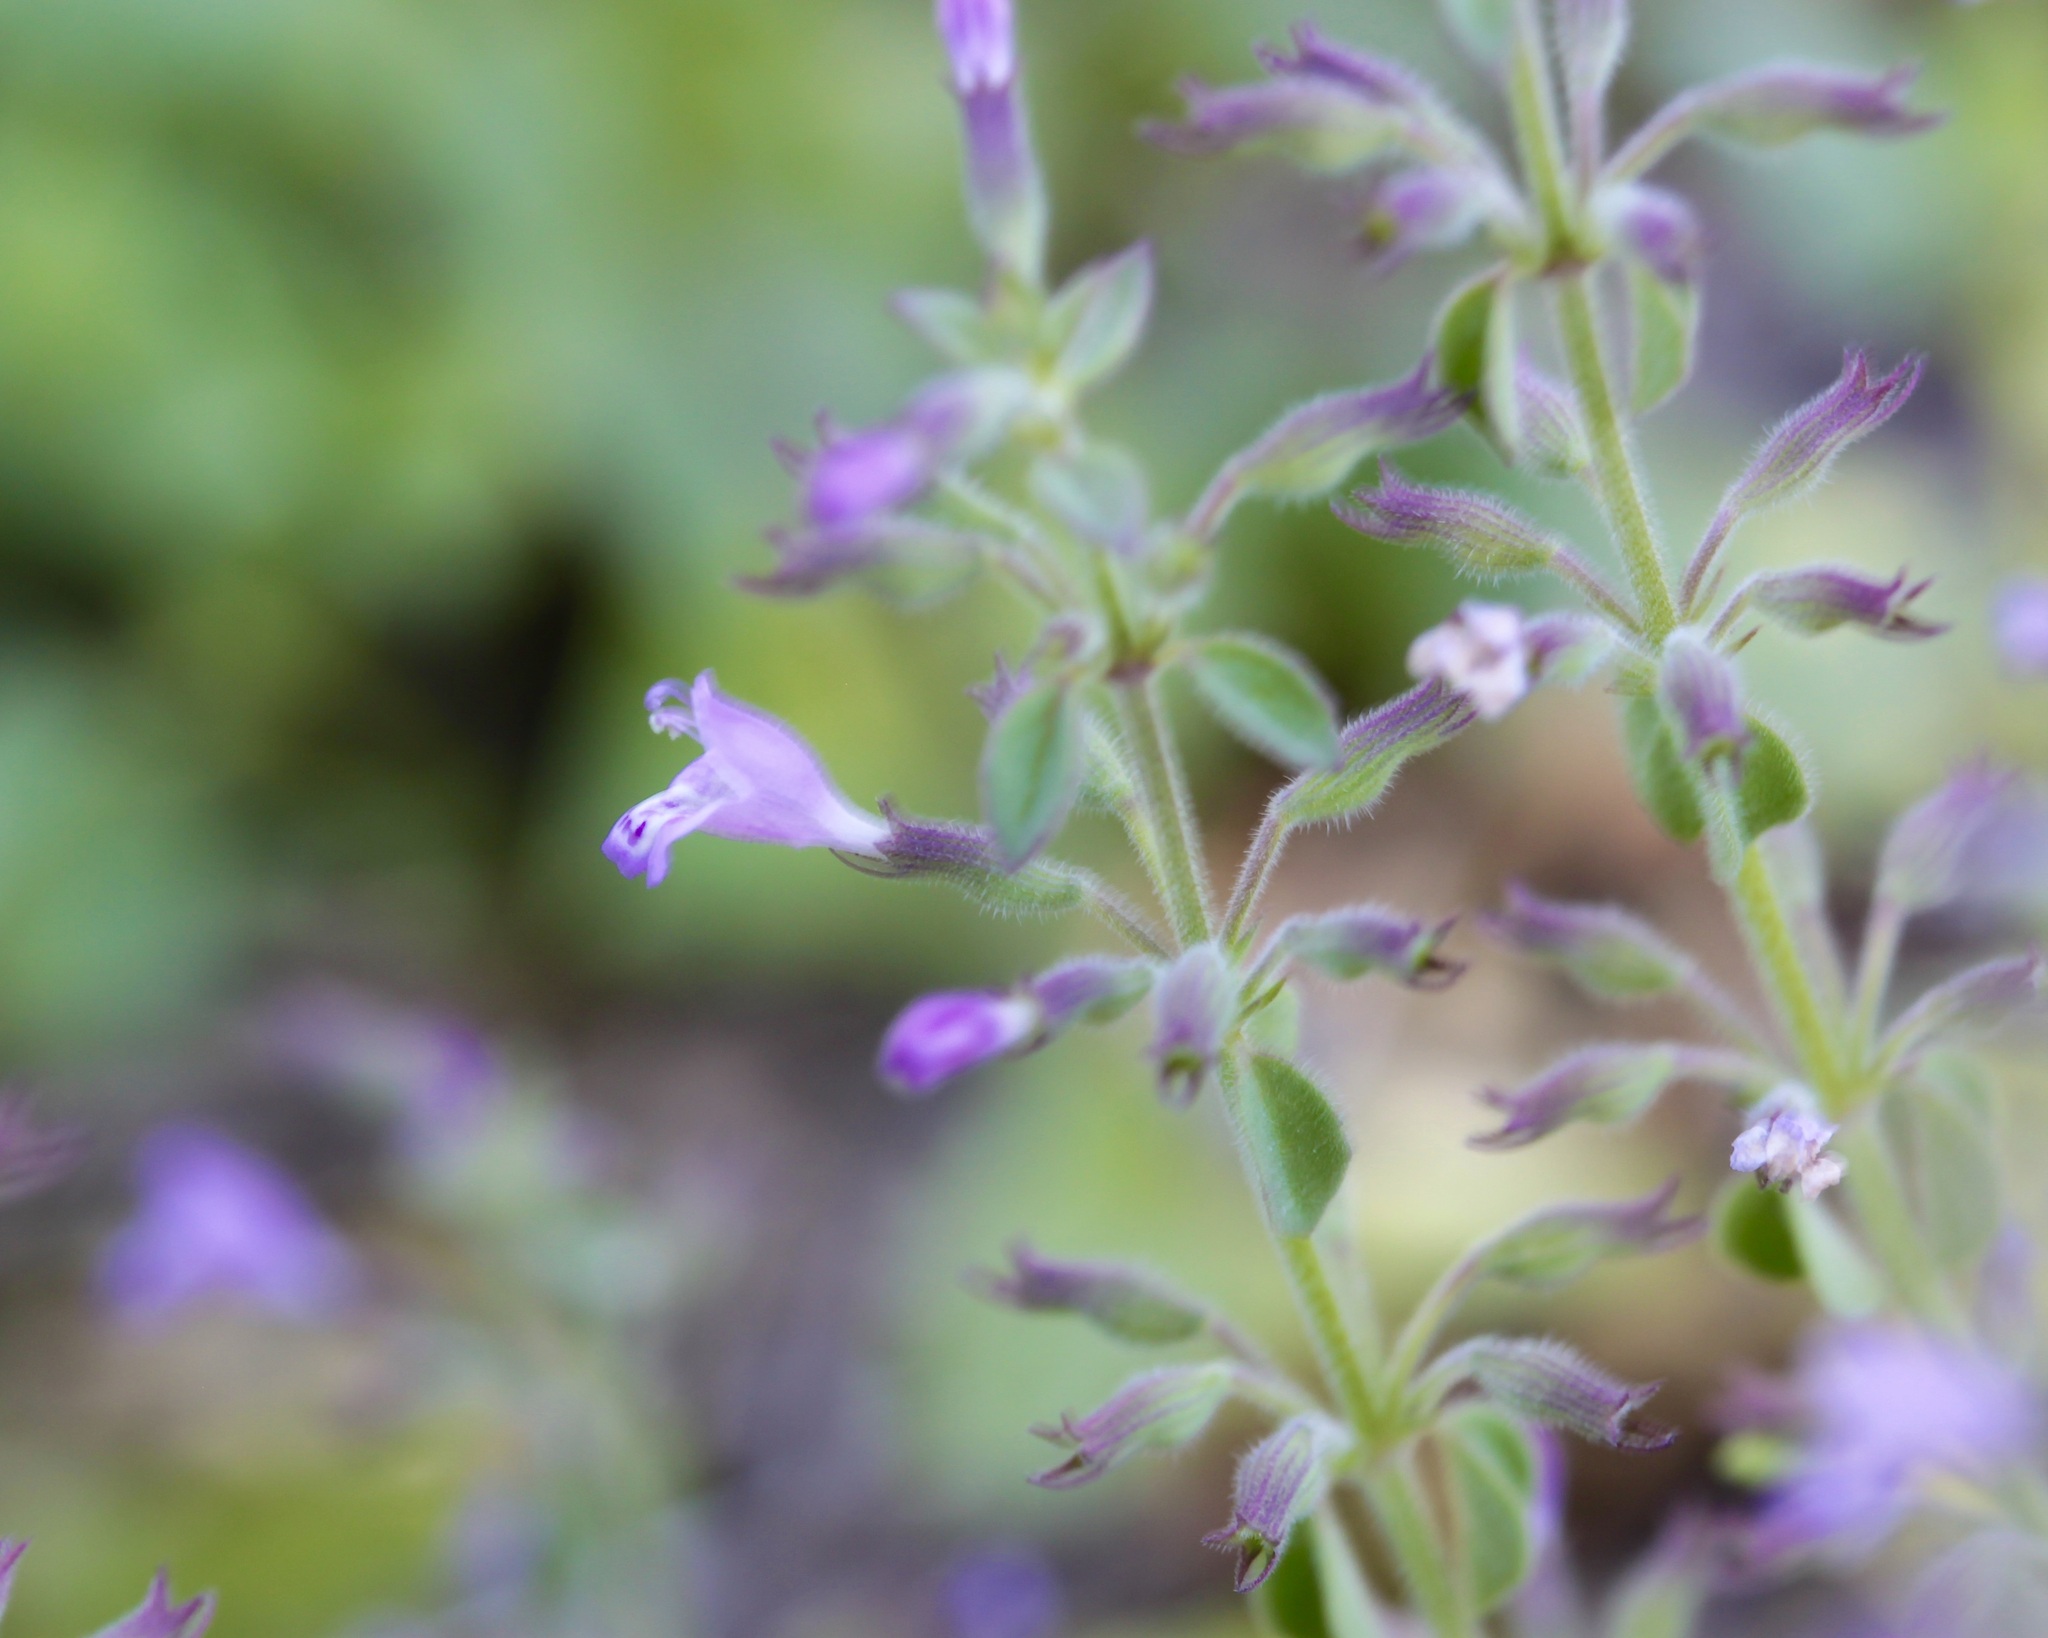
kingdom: Plantae
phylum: Tracheophyta
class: Magnoliopsida
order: Lamiales
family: Lamiaceae
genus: Hedeoma
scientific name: Hedeoma nana
